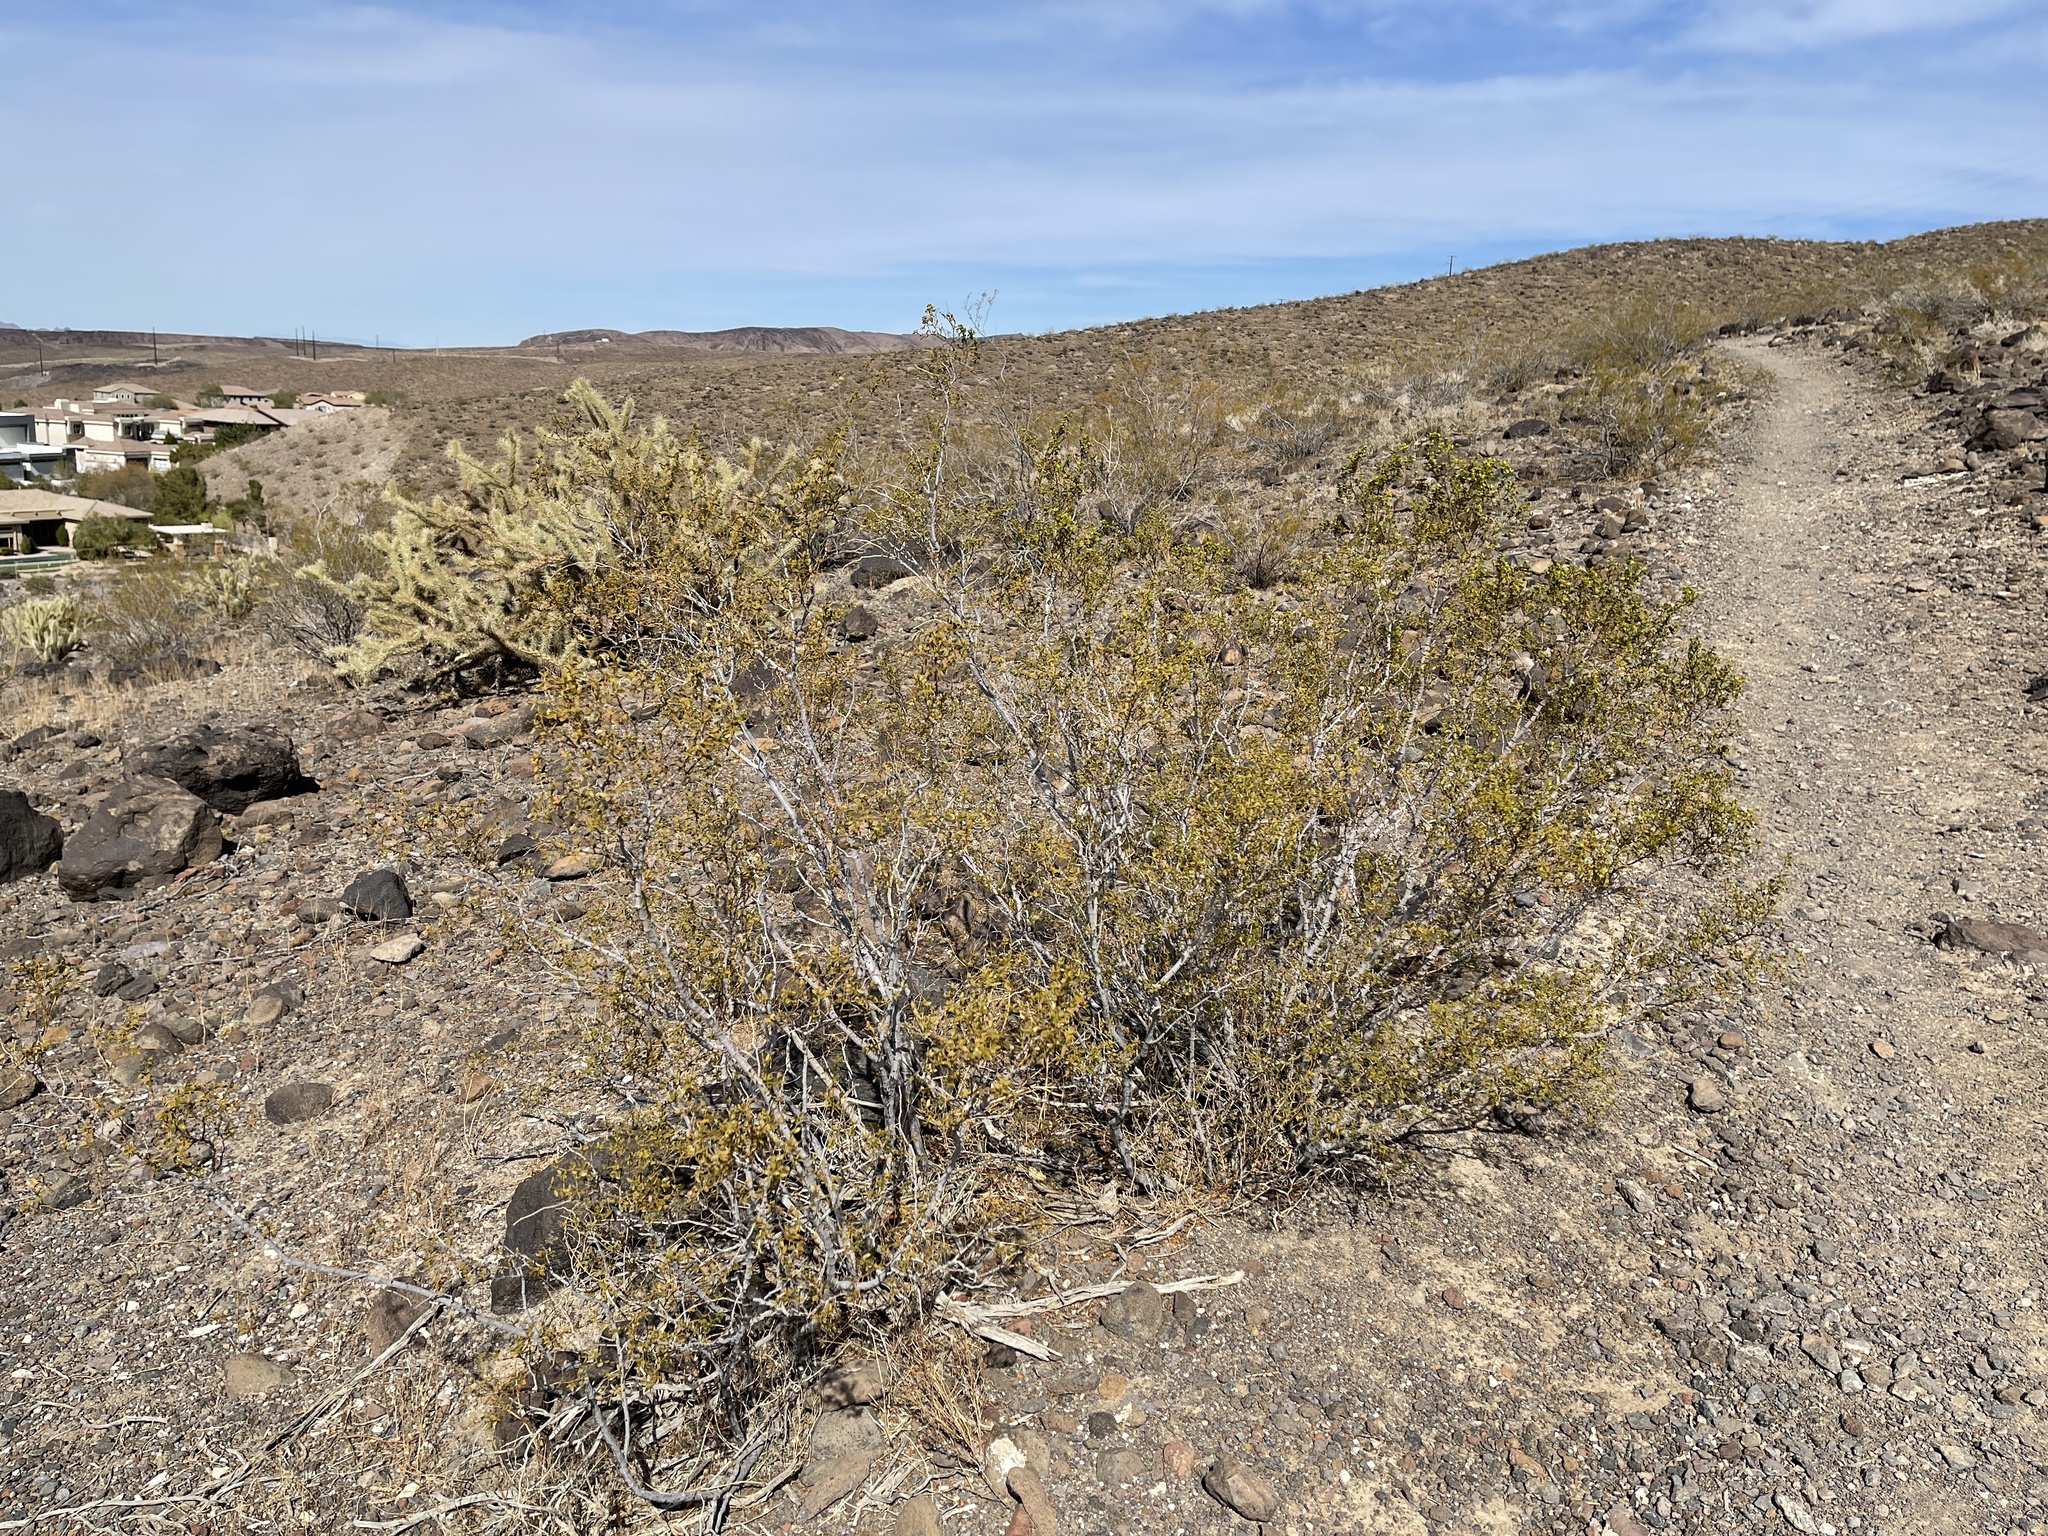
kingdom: Plantae
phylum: Tracheophyta
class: Magnoliopsida
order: Zygophyllales
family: Zygophyllaceae
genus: Larrea
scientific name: Larrea tridentata
